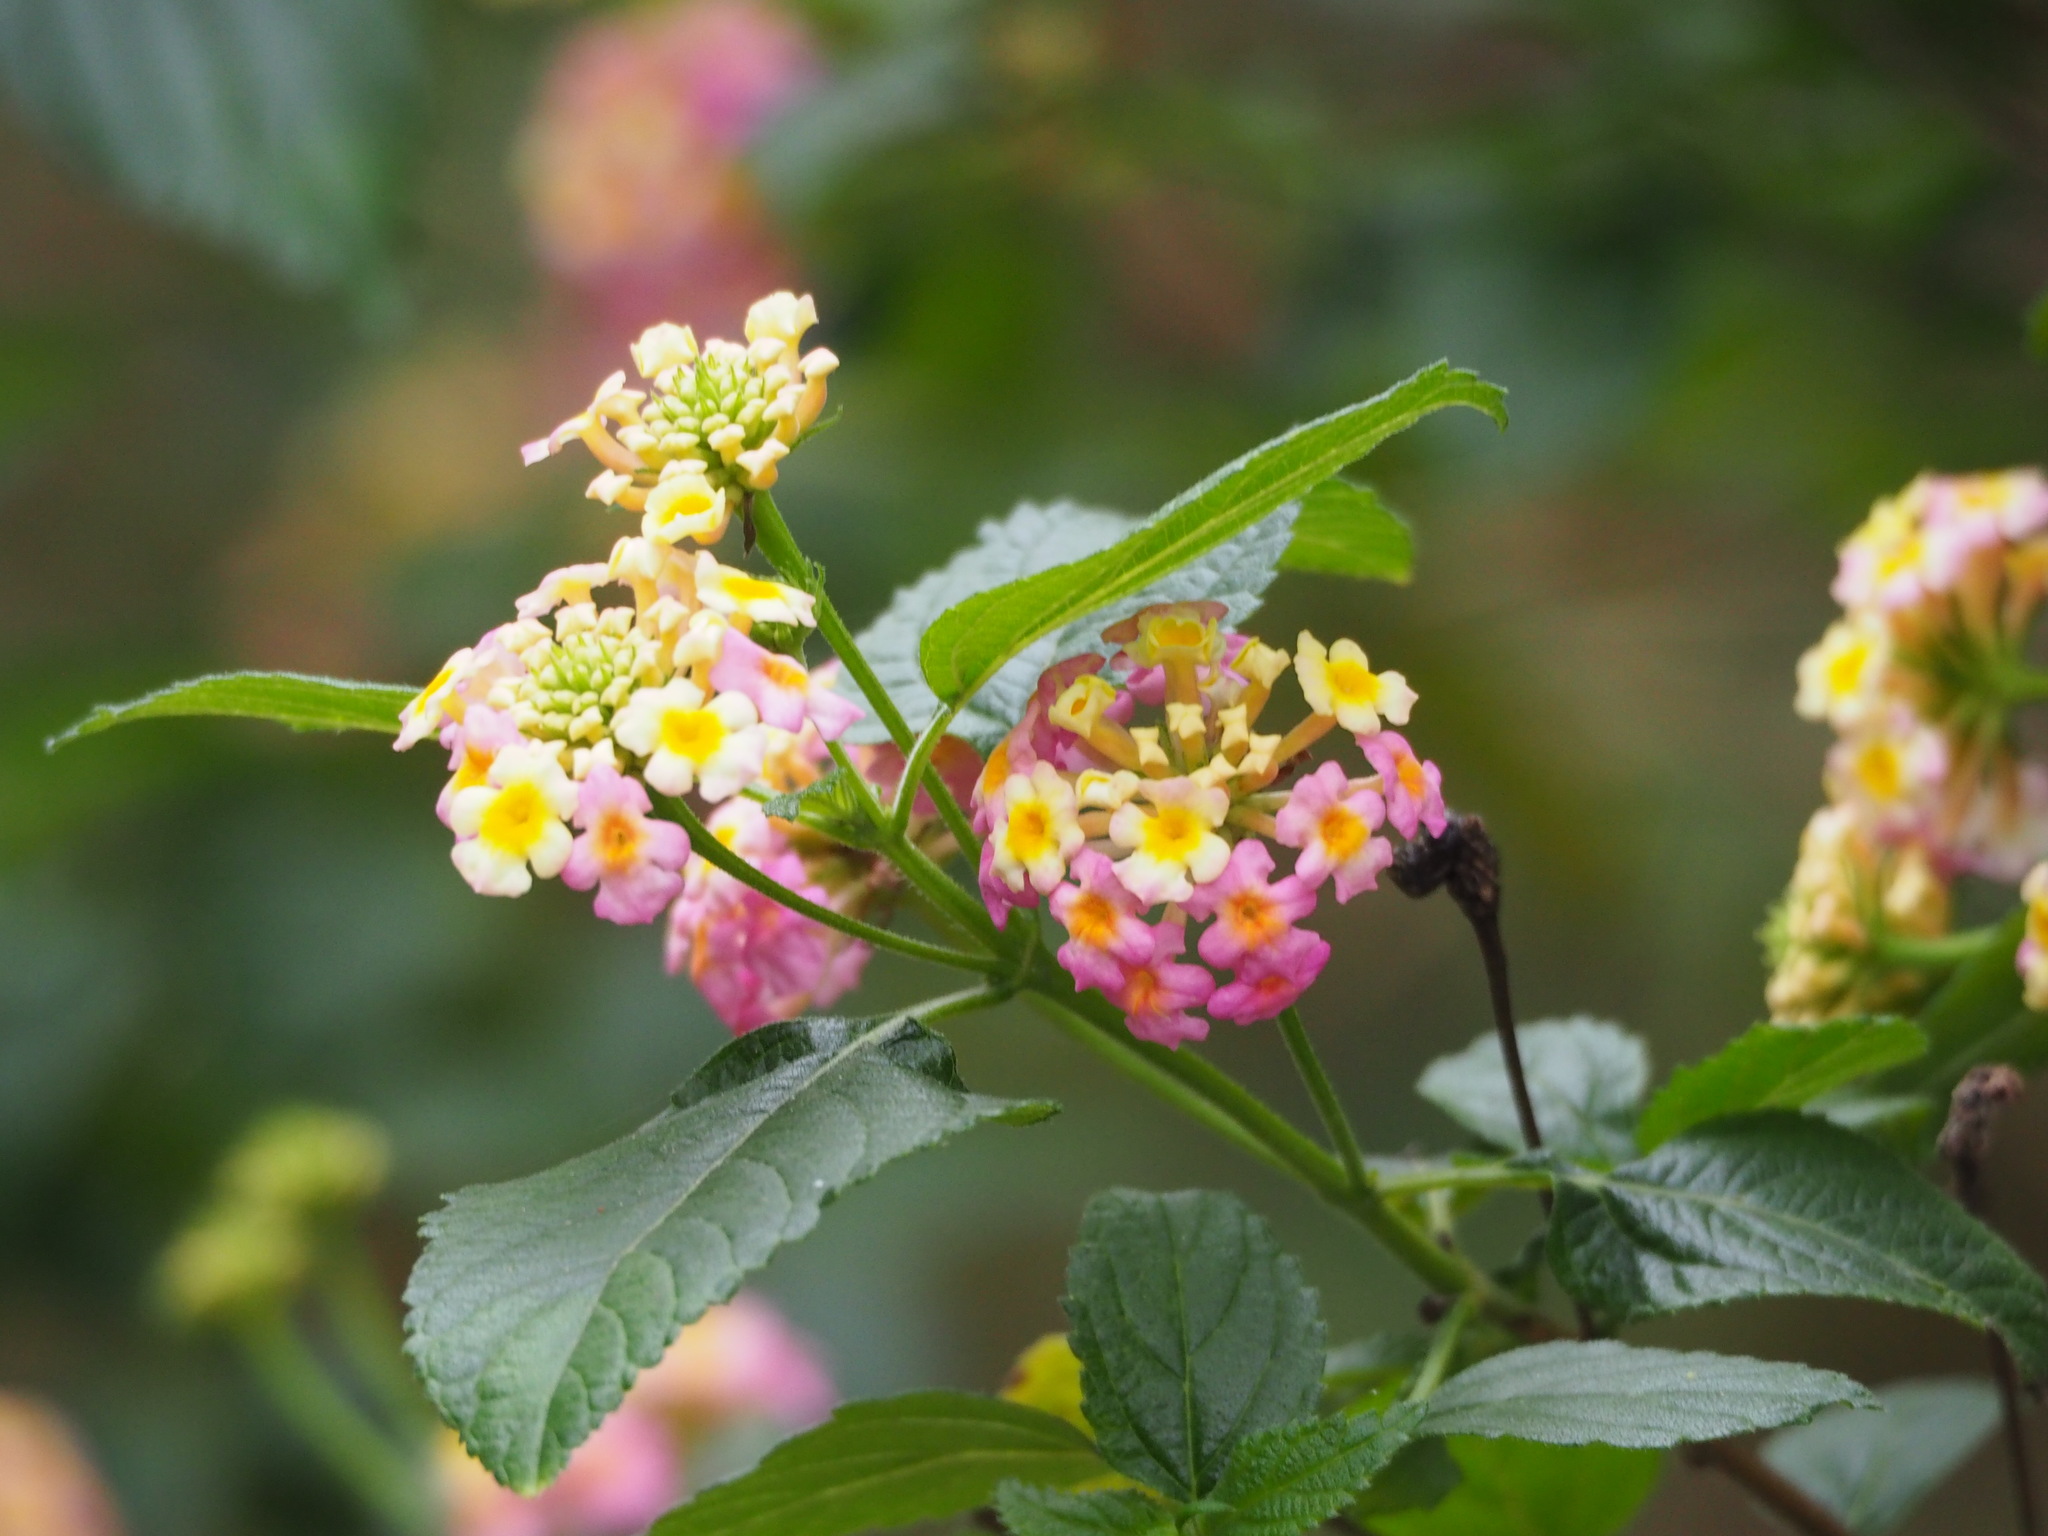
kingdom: Plantae
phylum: Tracheophyta
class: Magnoliopsida
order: Lamiales
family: Verbenaceae
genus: Lantana
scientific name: Lantana camara
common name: Lantana
